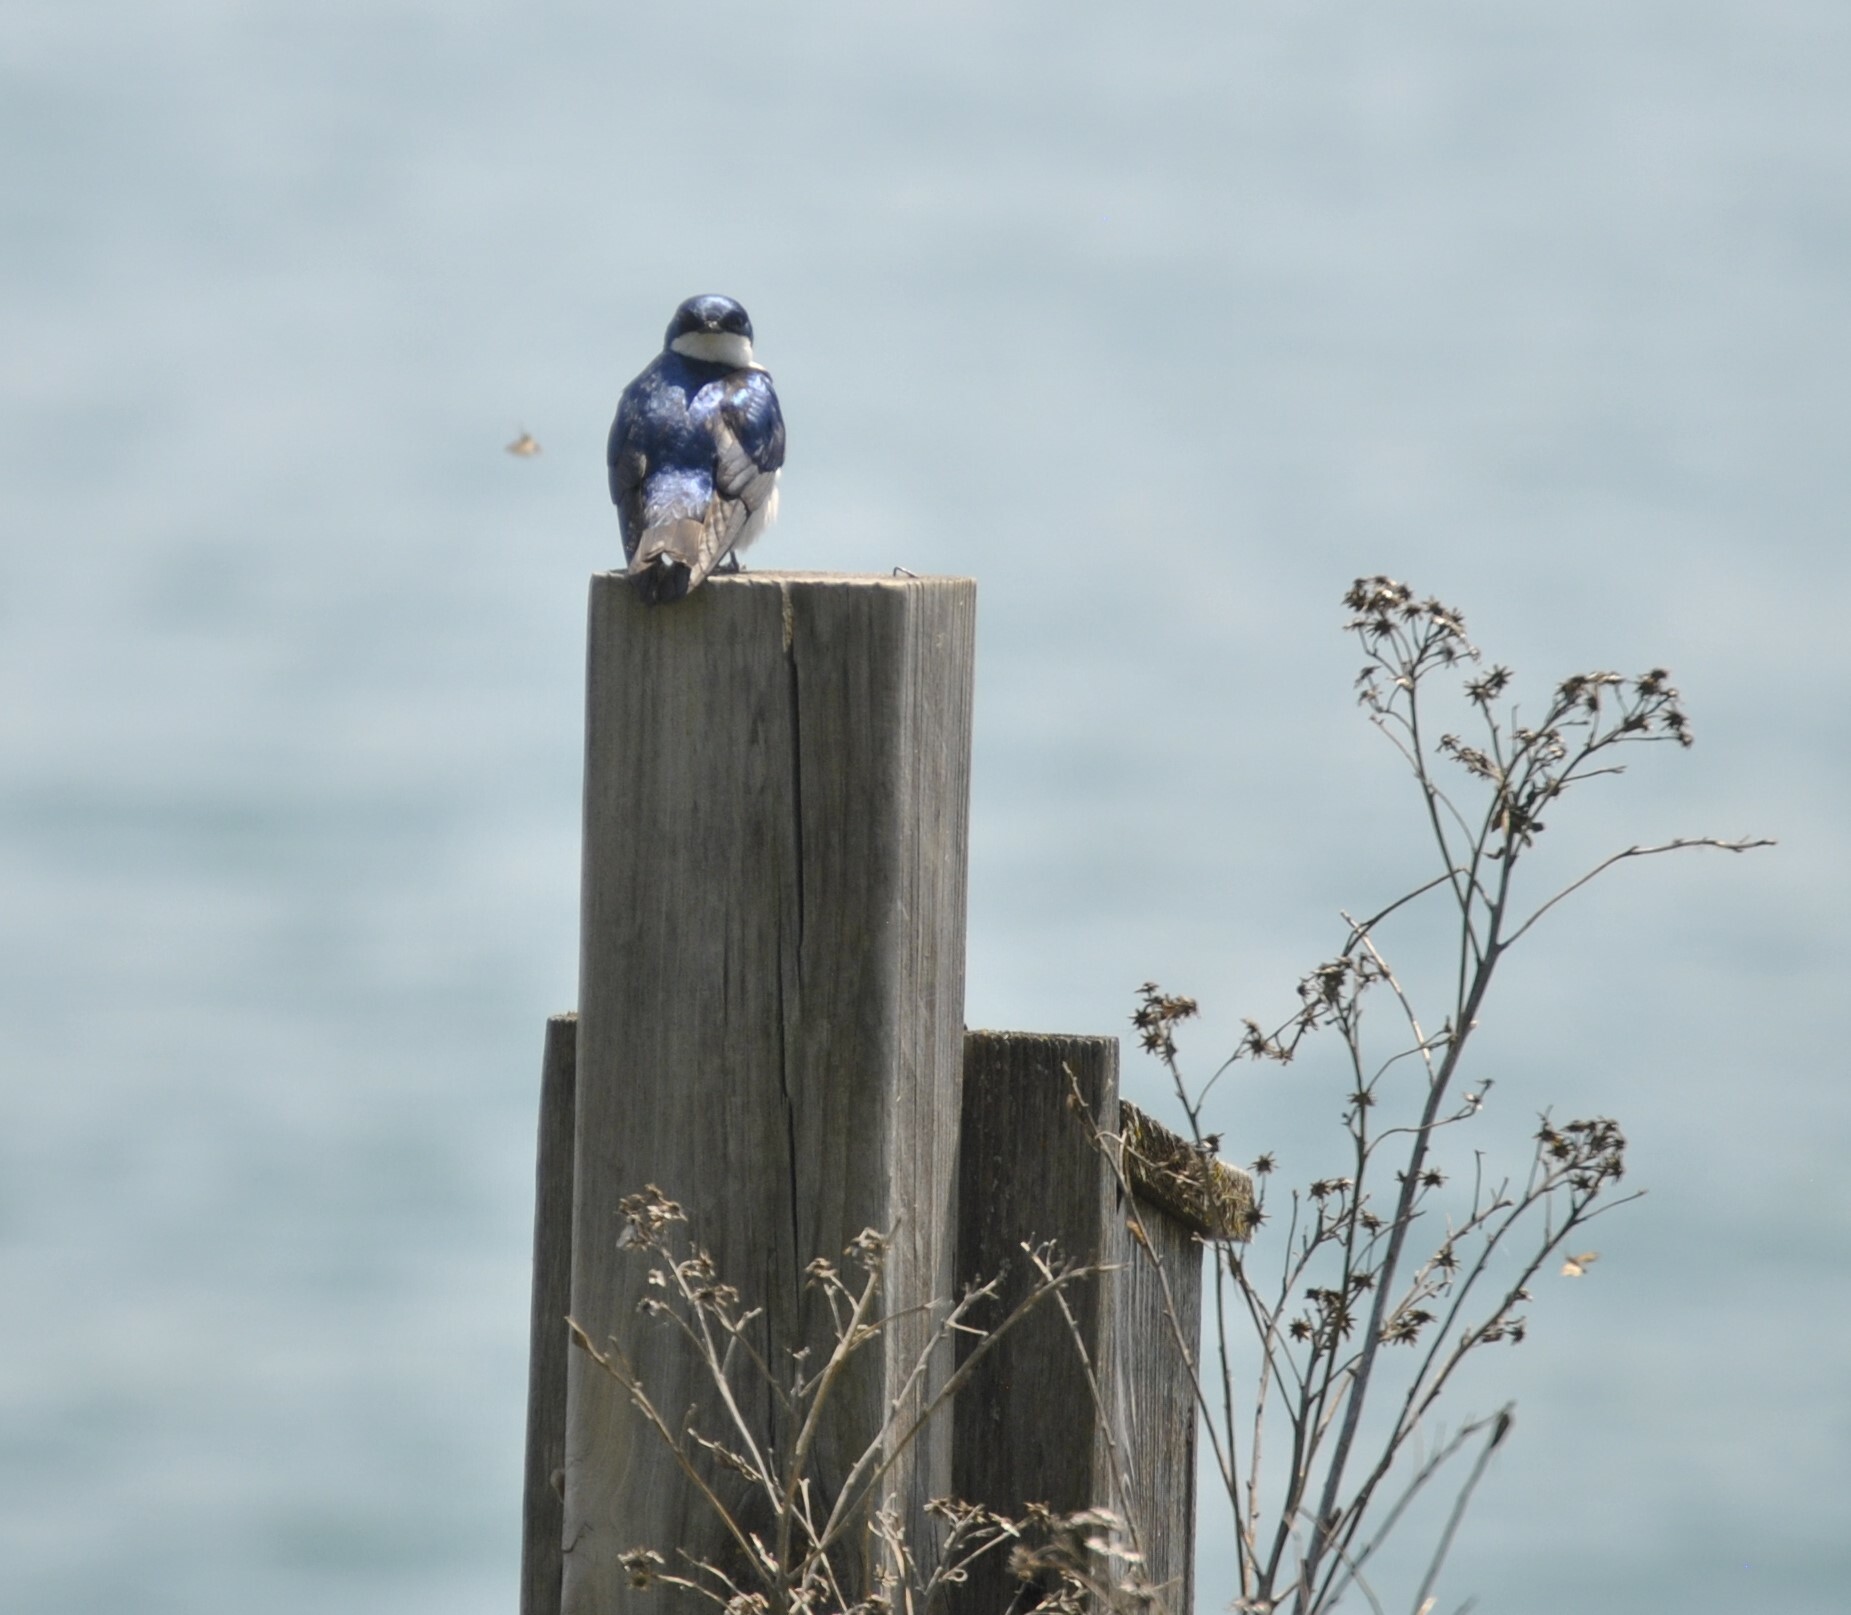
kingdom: Animalia
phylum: Chordata
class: Aves
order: Passeriformes
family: Hirundinidae
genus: Tachycineta
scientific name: Tachycineta bicolor
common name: Tree swallow
